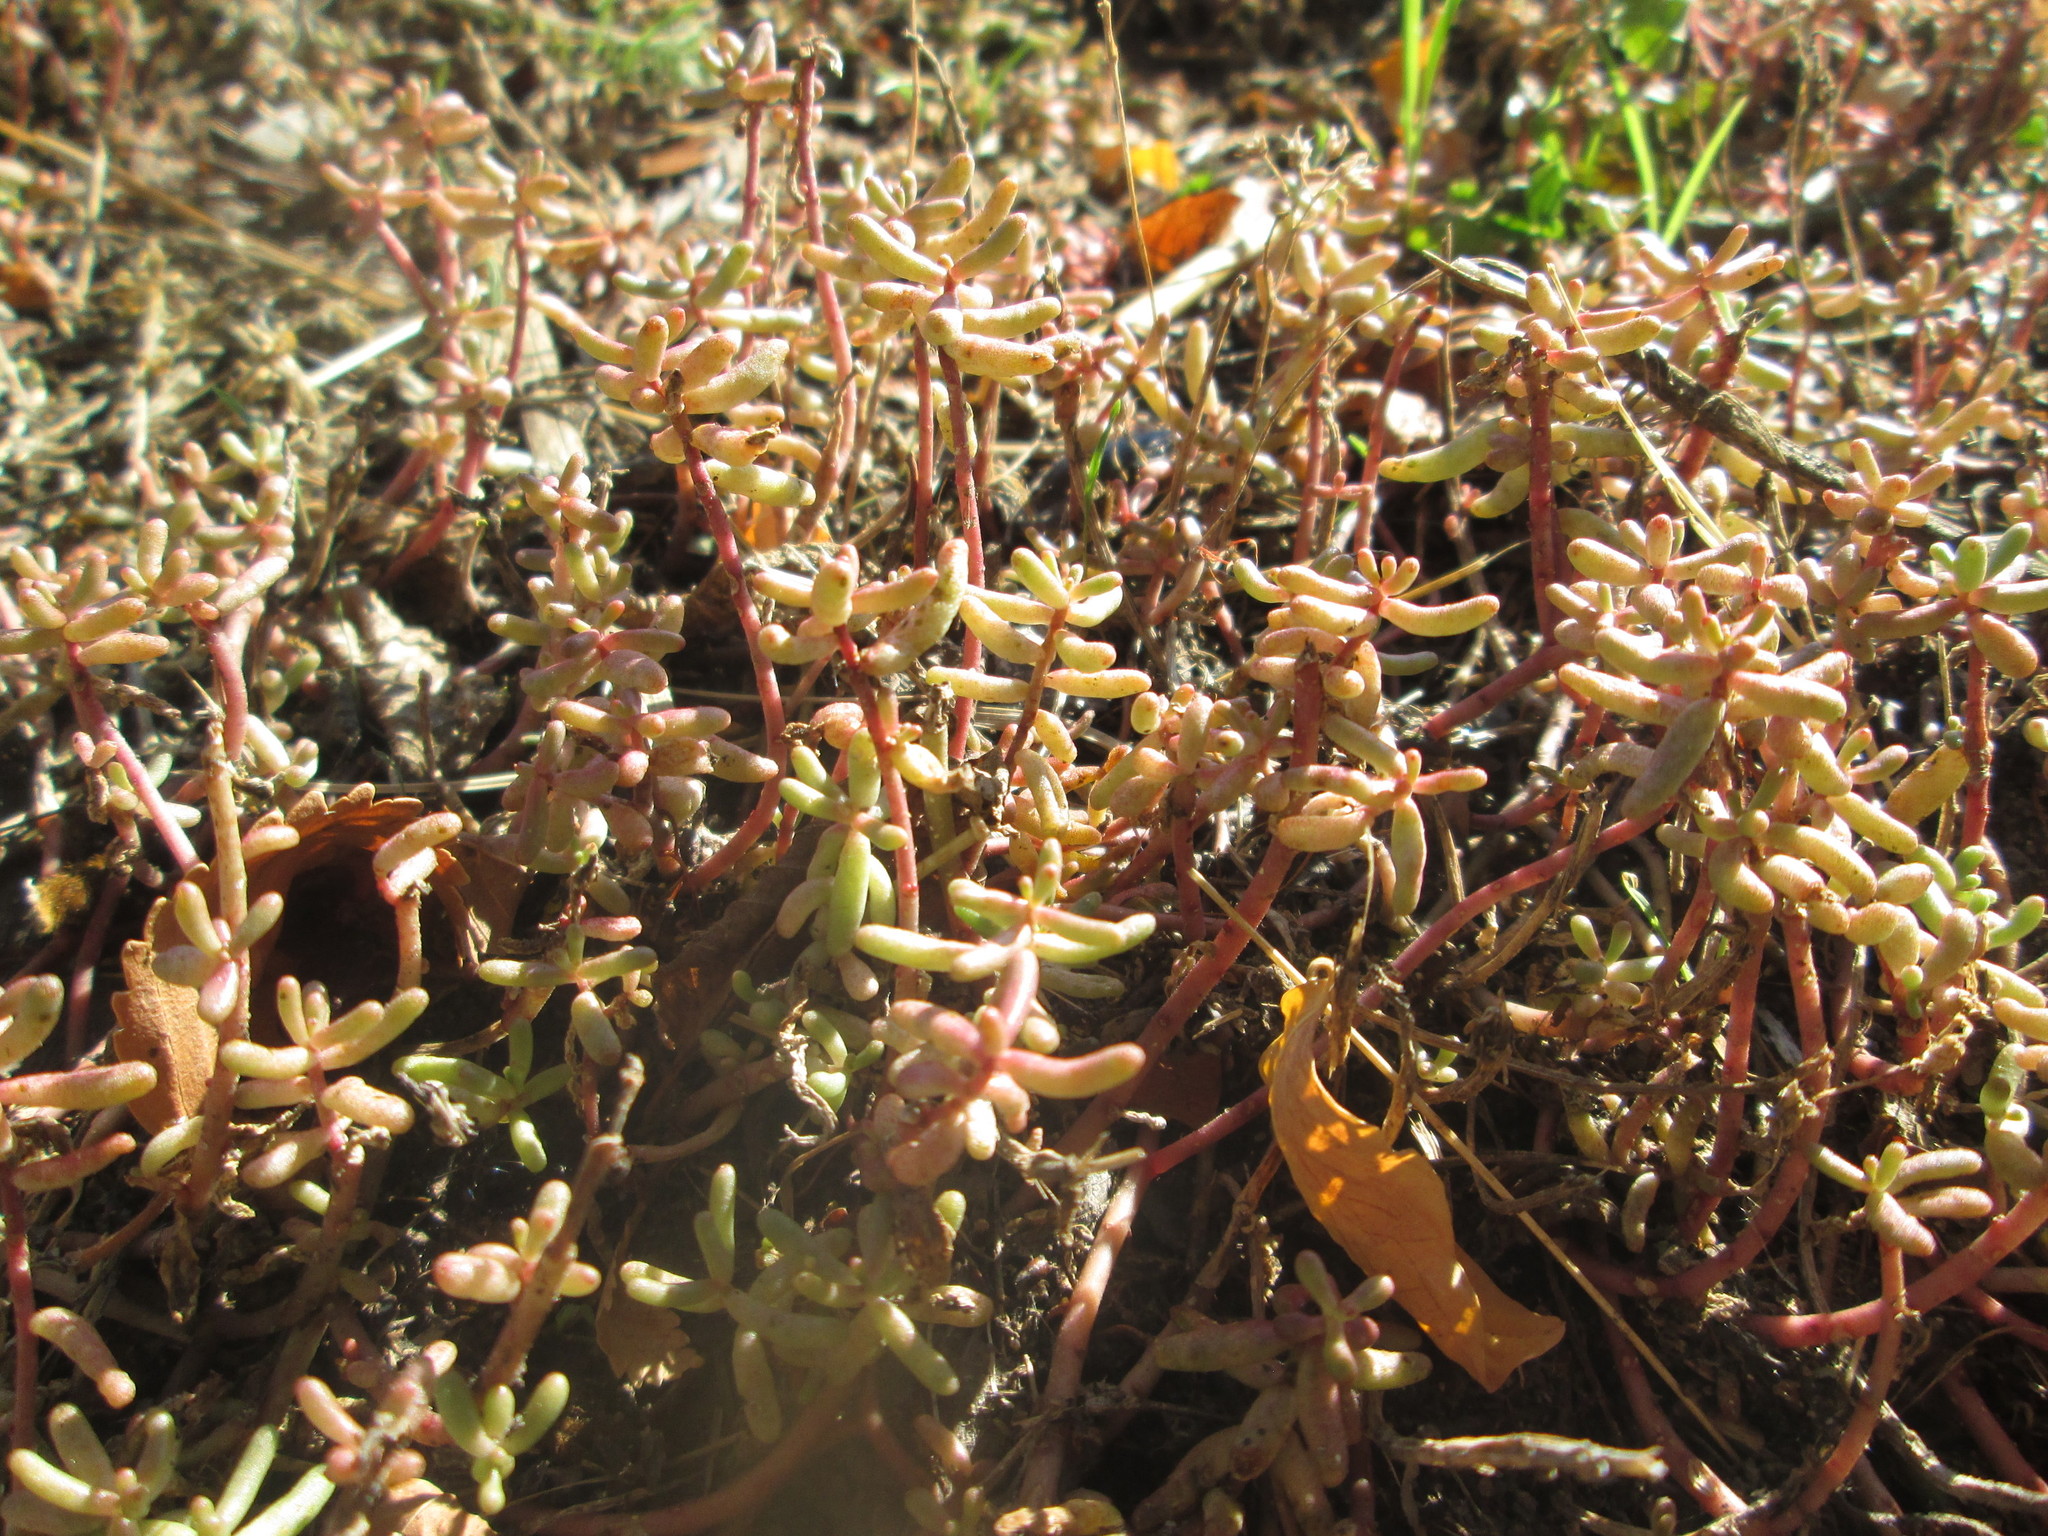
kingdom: Plantae
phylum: Tracheophyta
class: Magnoliopsida
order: Saxifragales
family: Crassulaceae
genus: Sedum
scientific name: Sedum album
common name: White stonecrop
